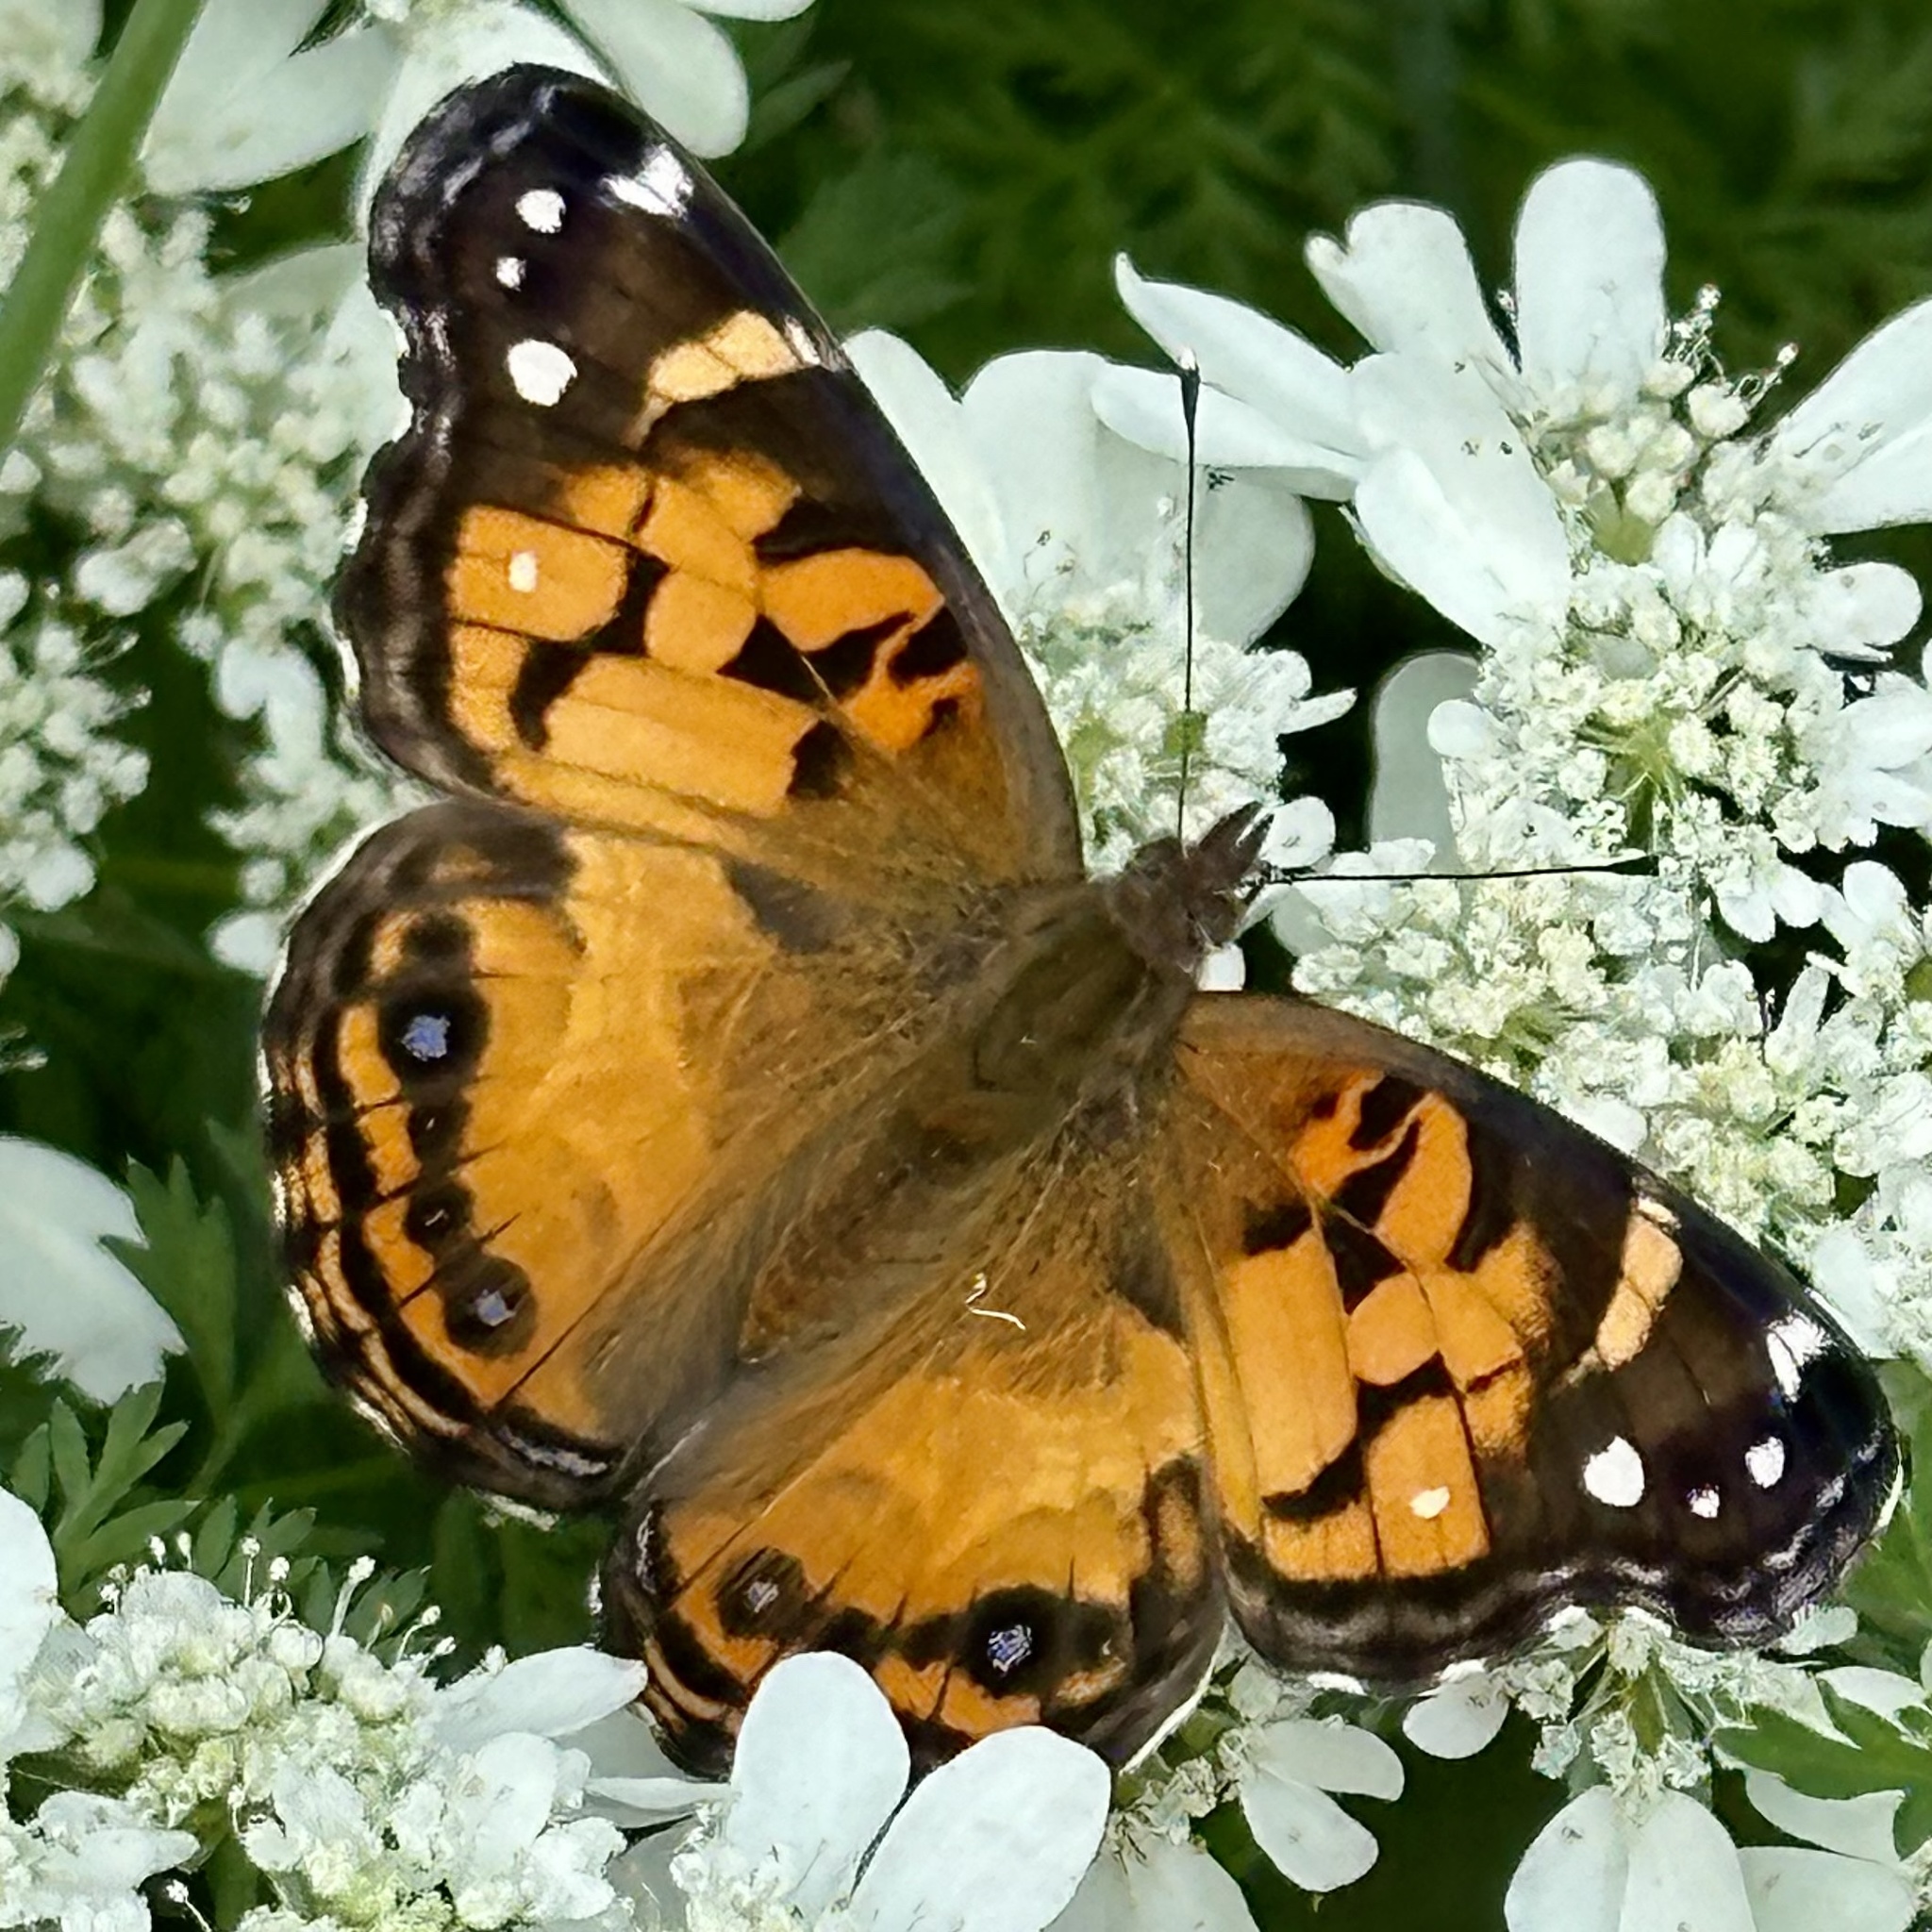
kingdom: Animalia
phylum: Arthropoda
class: Insecta
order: Lepidoptera
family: Nymphalidae
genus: Vanessa
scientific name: Vanessa virginiensis
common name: American lady
